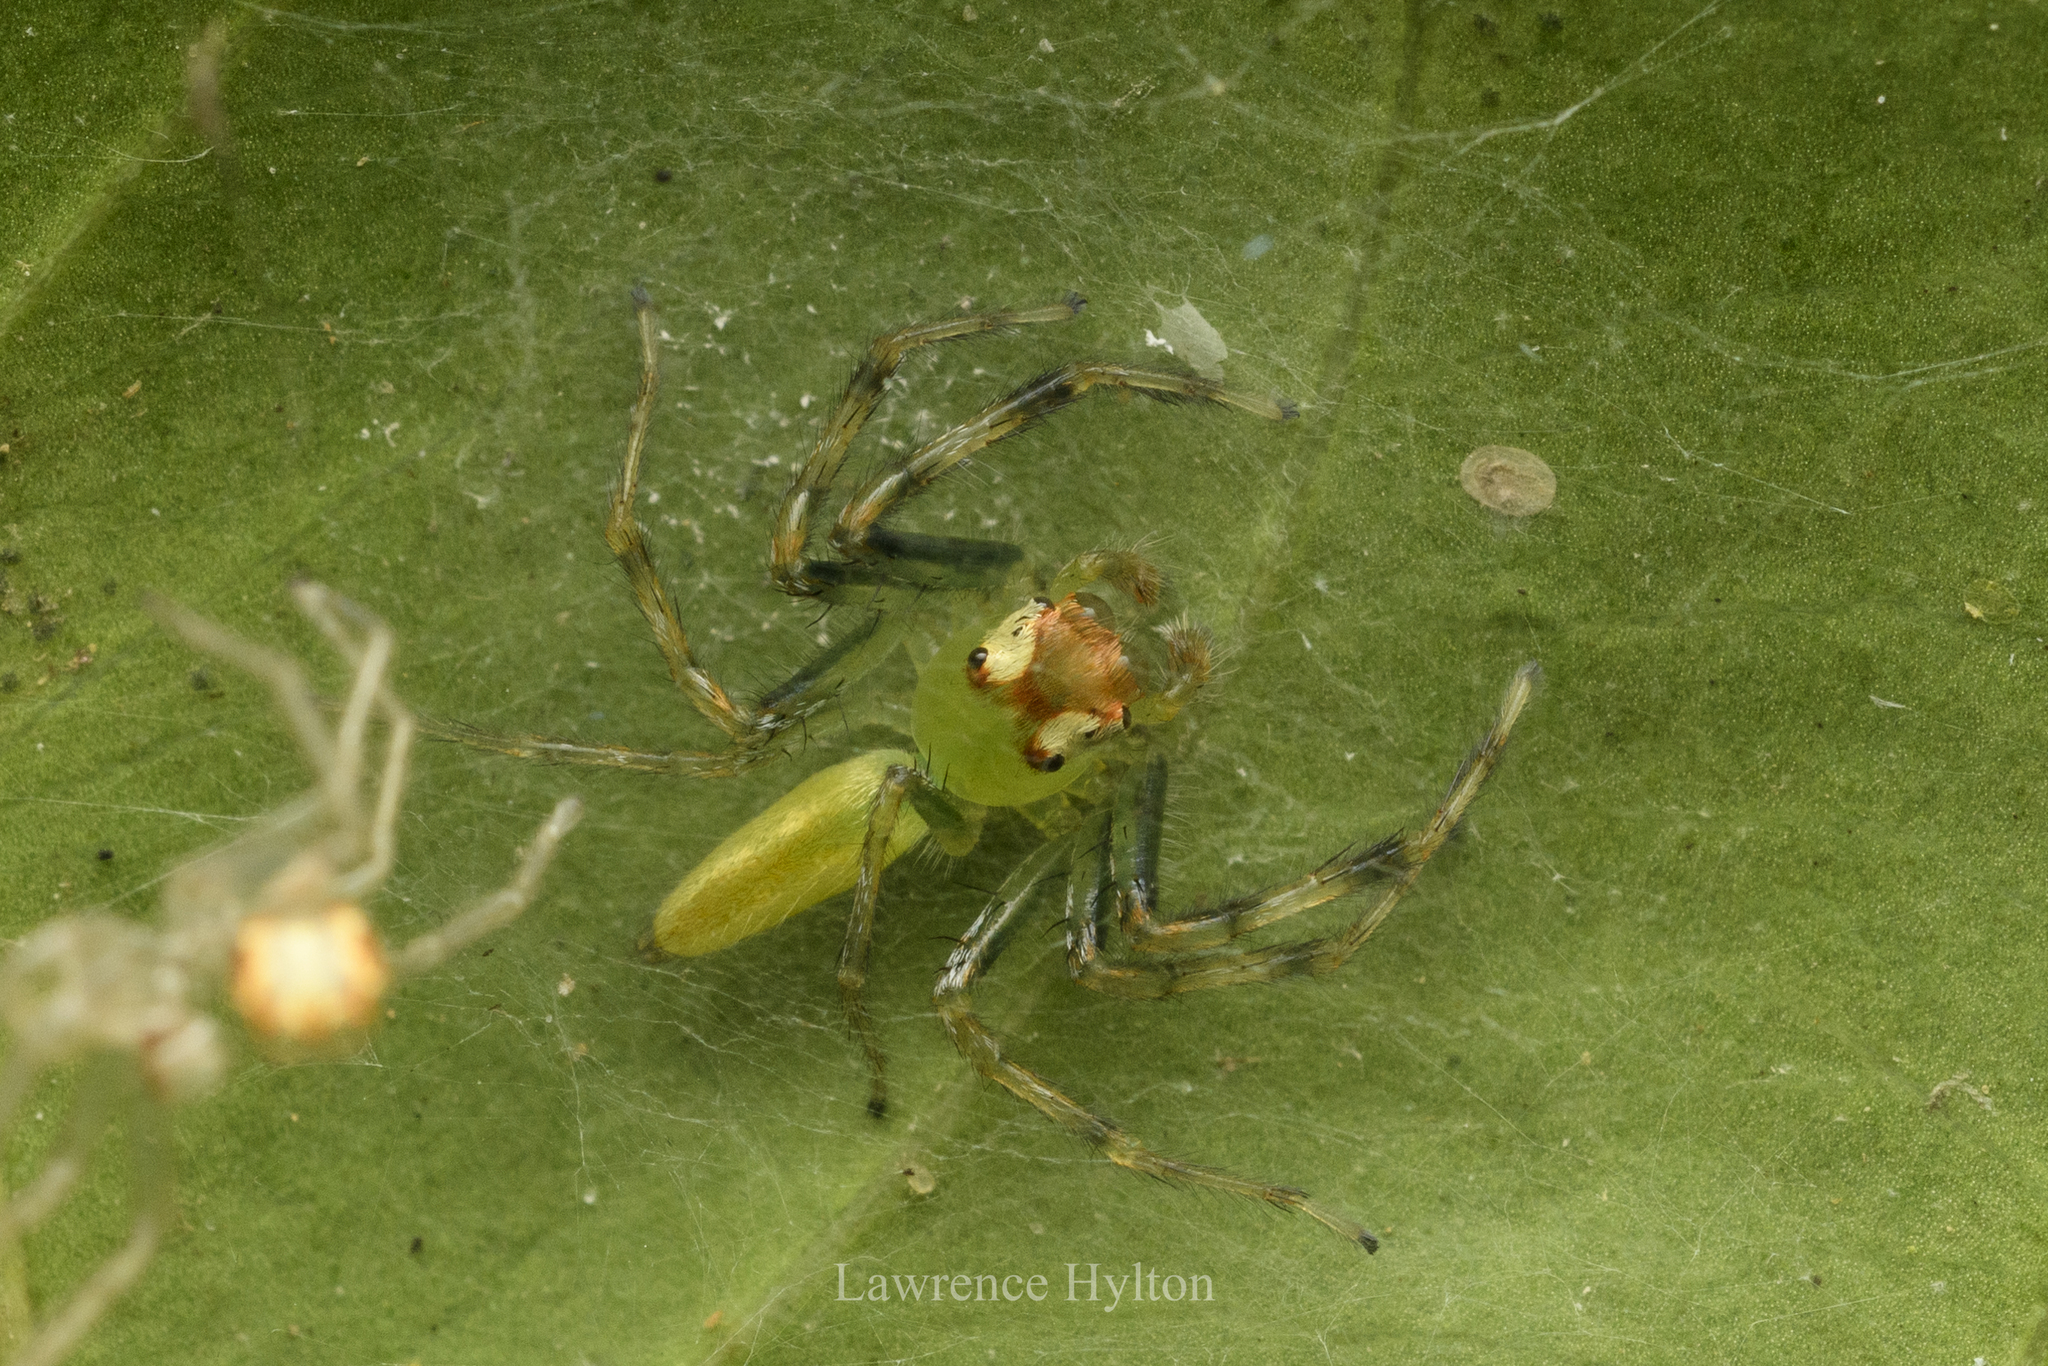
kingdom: Animalia
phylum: Arthropoda
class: Arachnida
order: Araneae
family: Salticidae
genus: Epeus
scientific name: Epeus glorius
